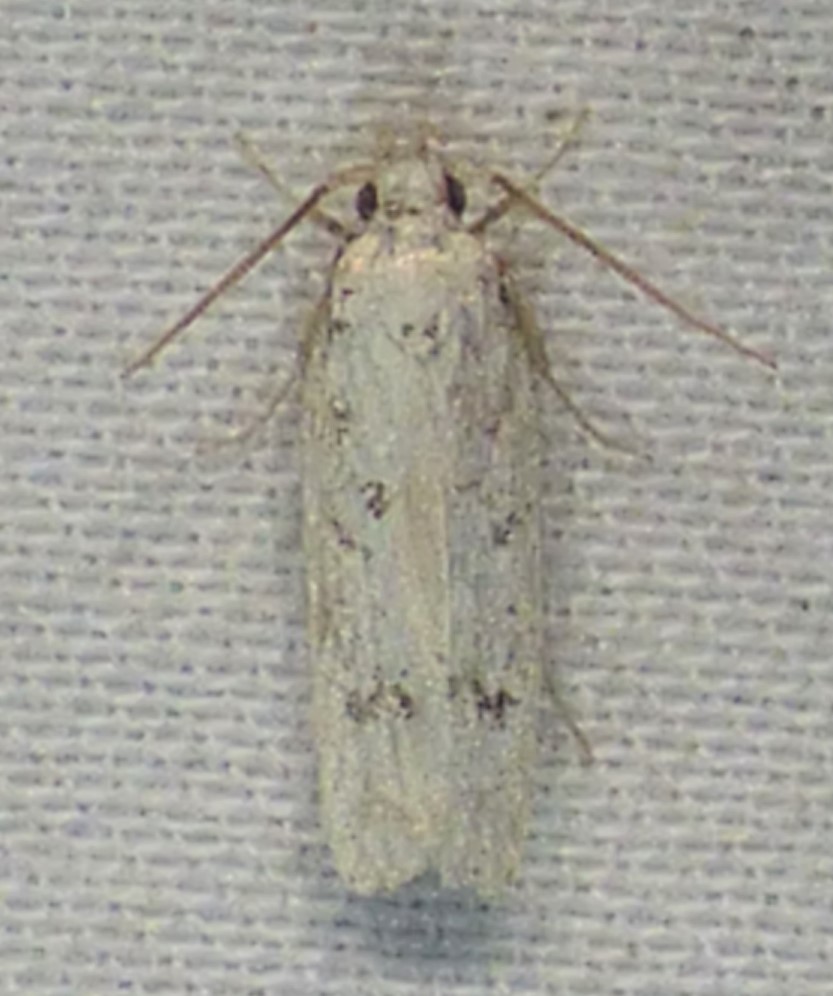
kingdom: Animalia
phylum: Arthropoda
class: Insecta
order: Lepidoptera
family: Autostichidae
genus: Glyphidocera
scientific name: Glyphidocera lactiflosella
